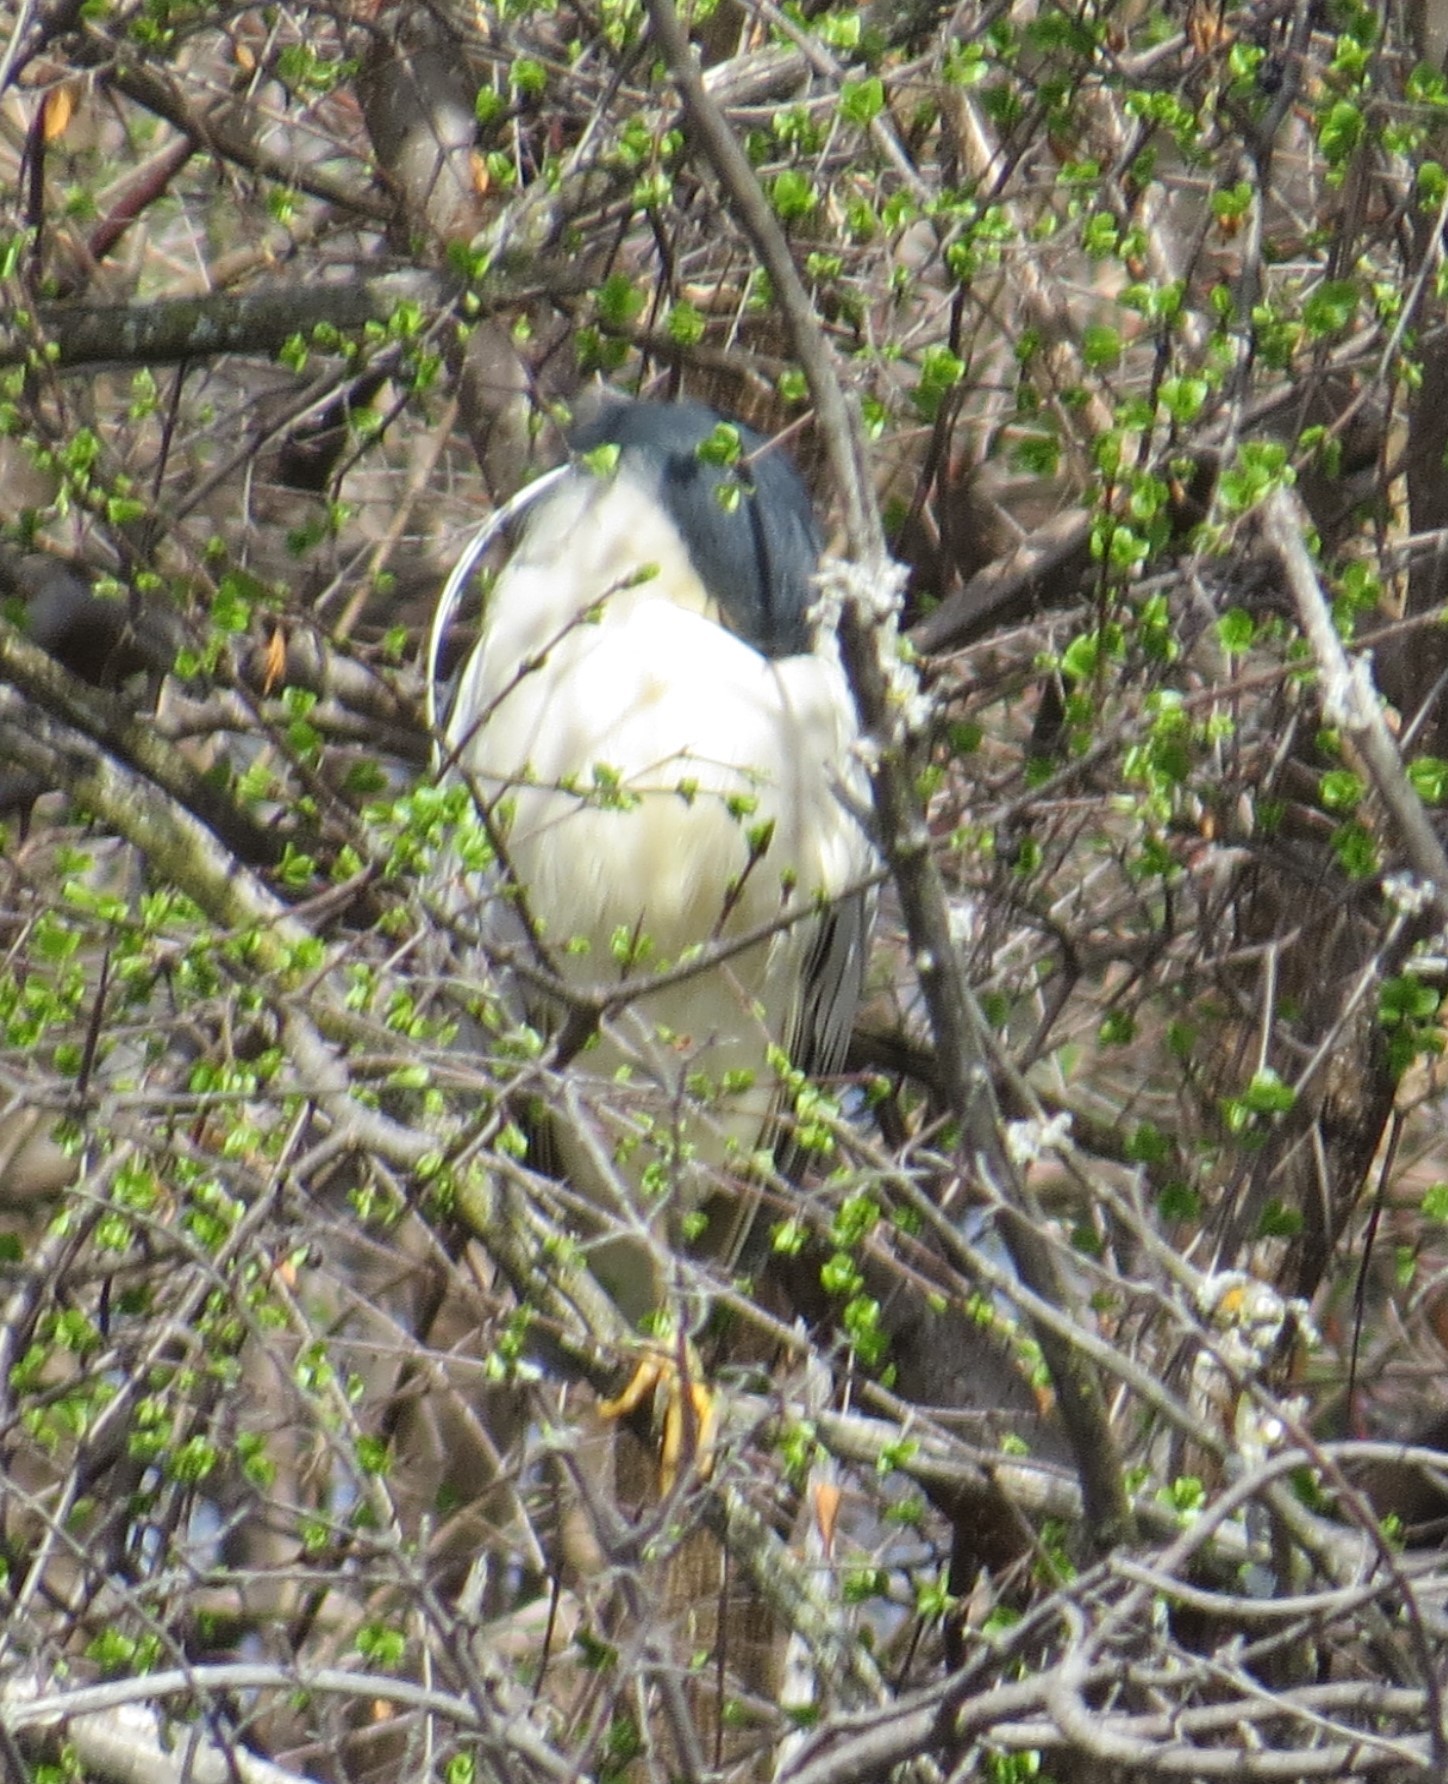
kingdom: Animalia
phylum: Chordata
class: Aves
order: Pelecaniformes
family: Ardeidae
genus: Nycticorax
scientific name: Nycticorax nycticorax
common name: Black-crowned night heron
